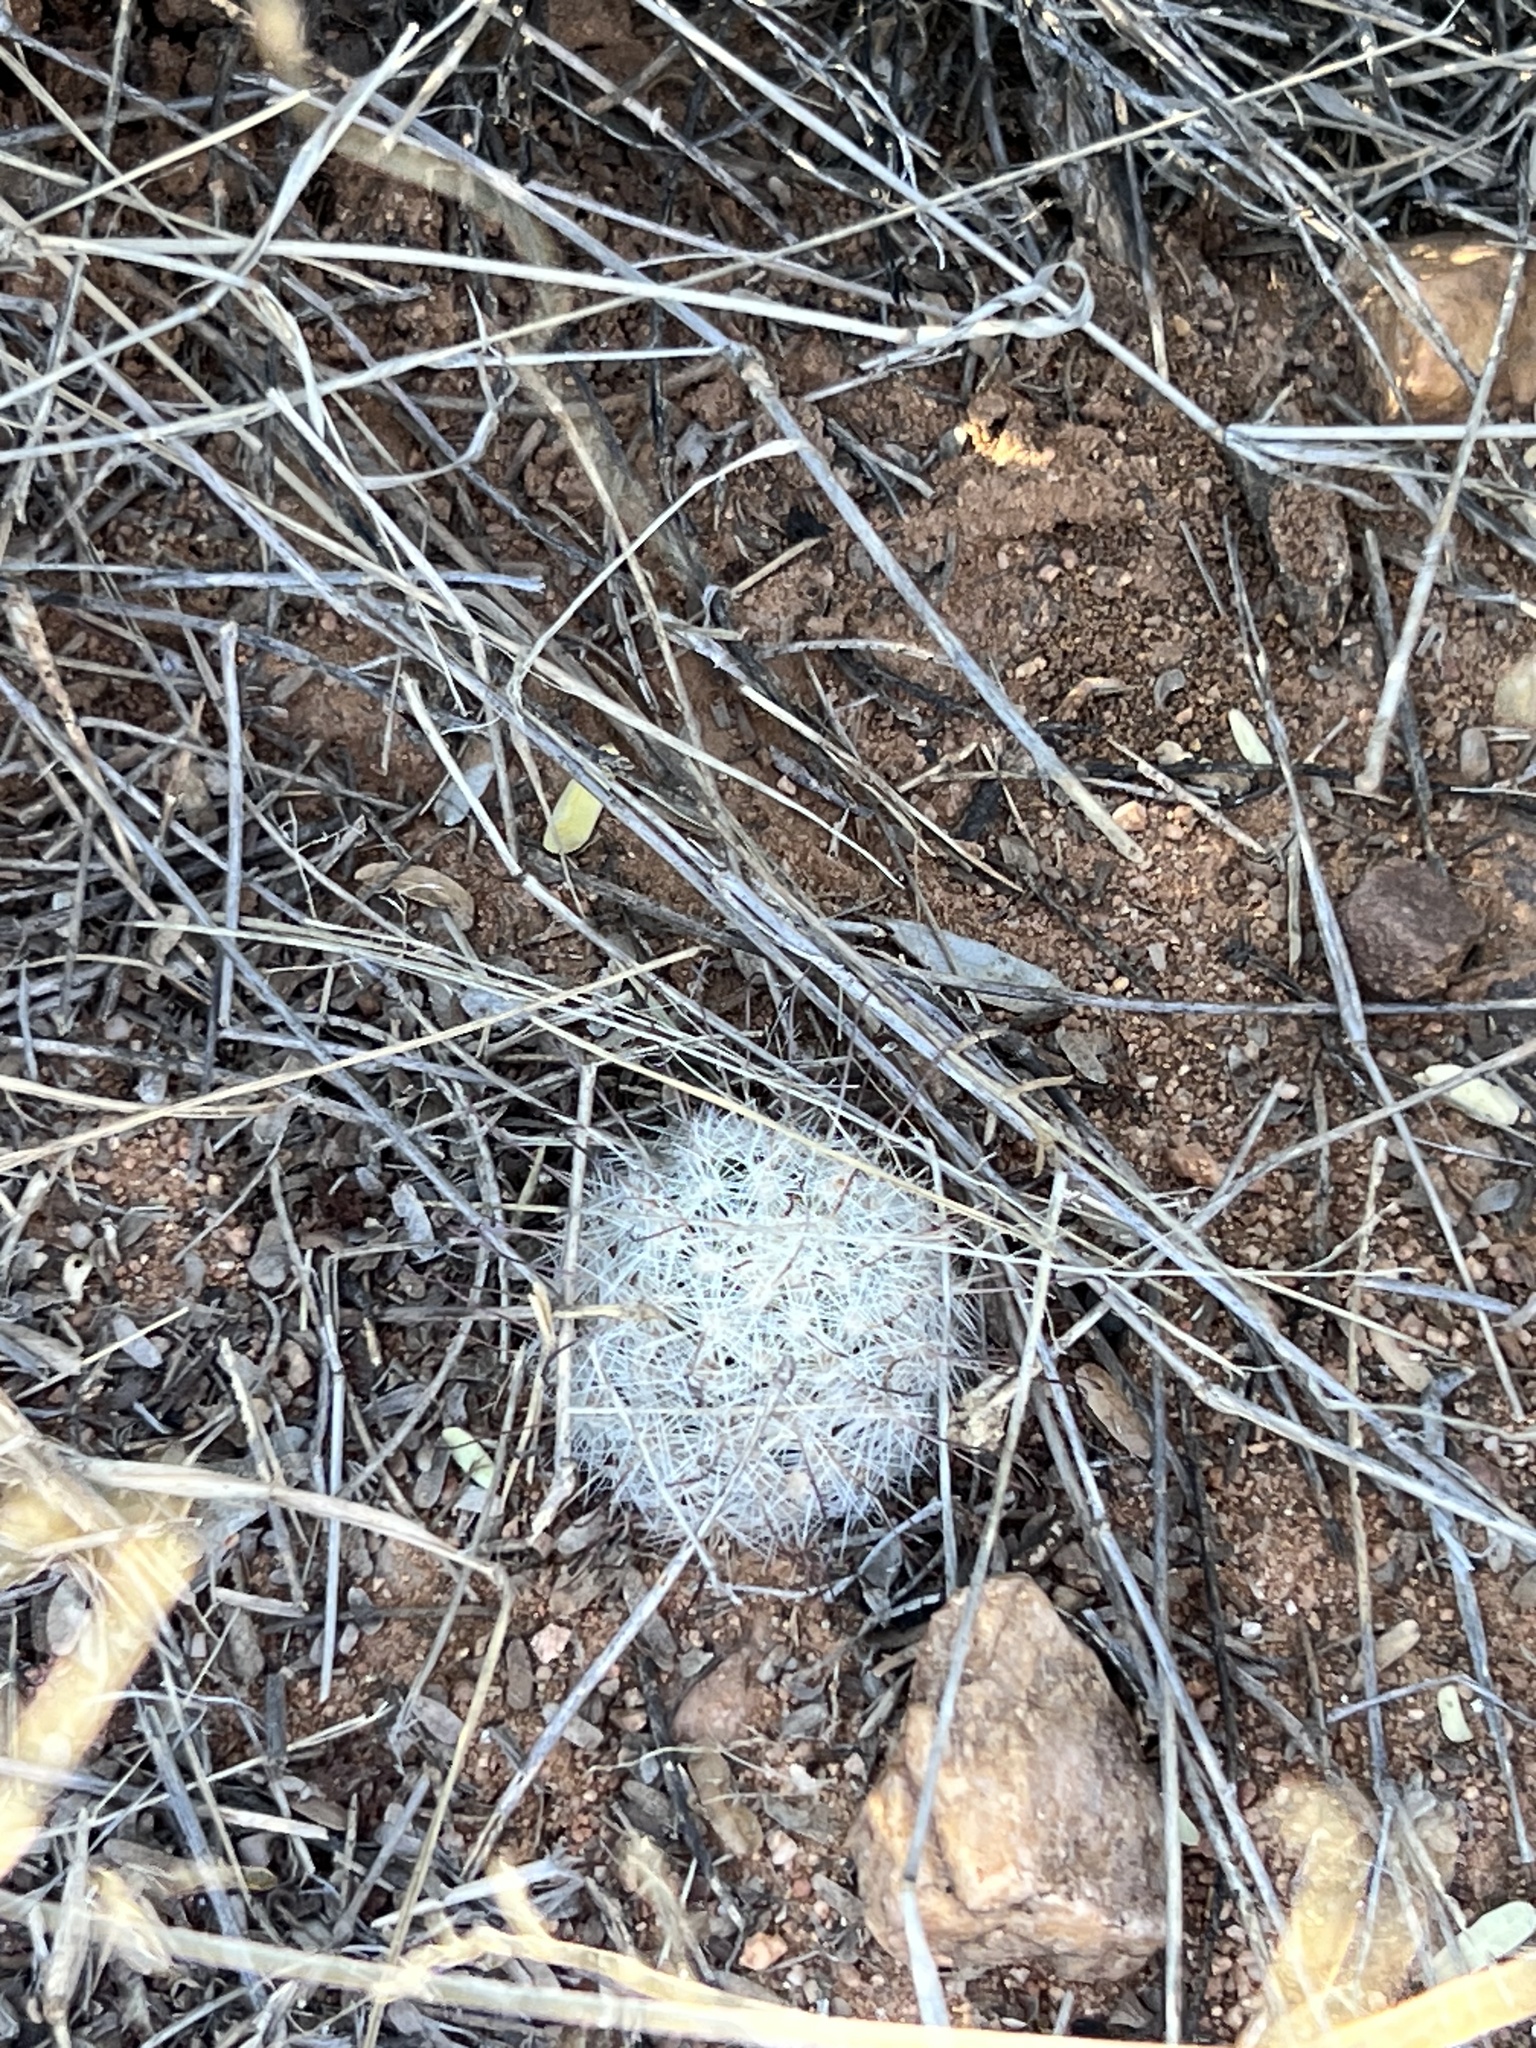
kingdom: Plantae
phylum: Tracheophyta
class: Magnoliopsida
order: Caryophyllales
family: Cactaceae
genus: Cochemiea
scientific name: Cochemiea grahamii
